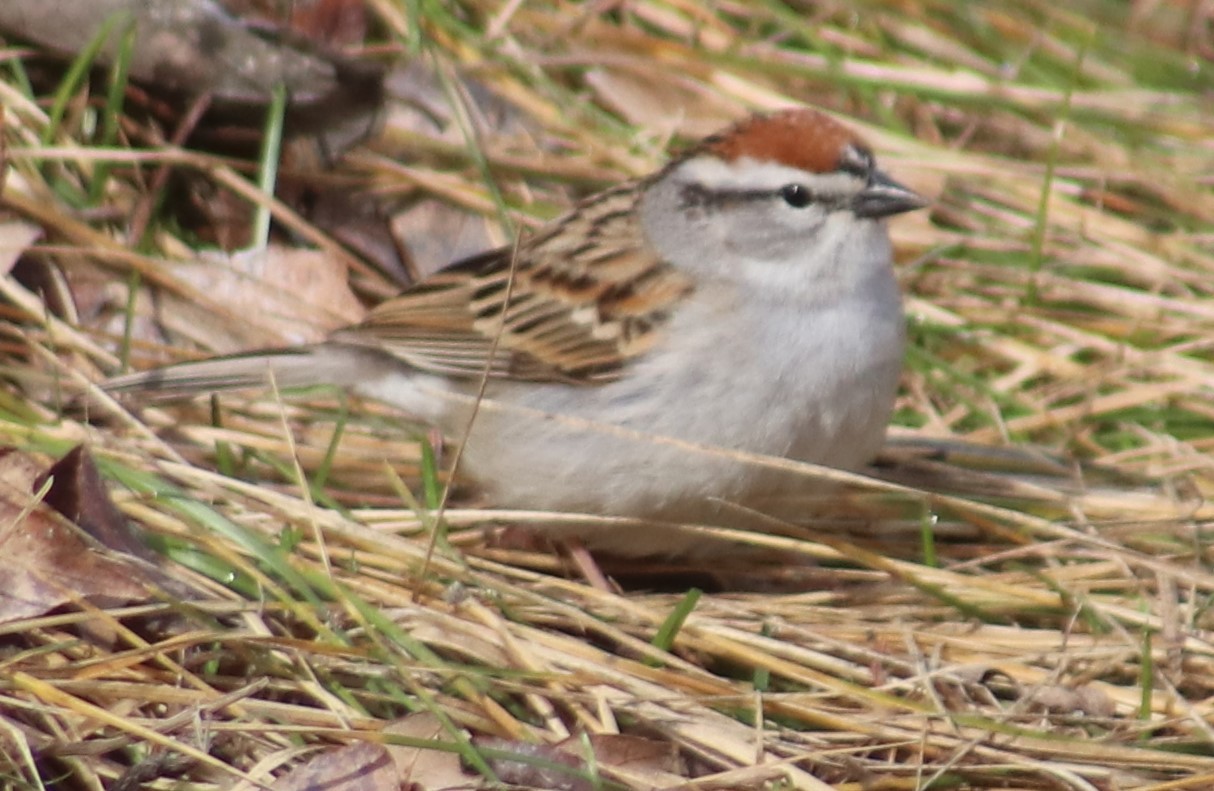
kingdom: Animalia
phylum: Chordata
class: Aves
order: Passeriformes
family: Passerellidae
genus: Spizella
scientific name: Spizella passerina
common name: Chipping sparrow
